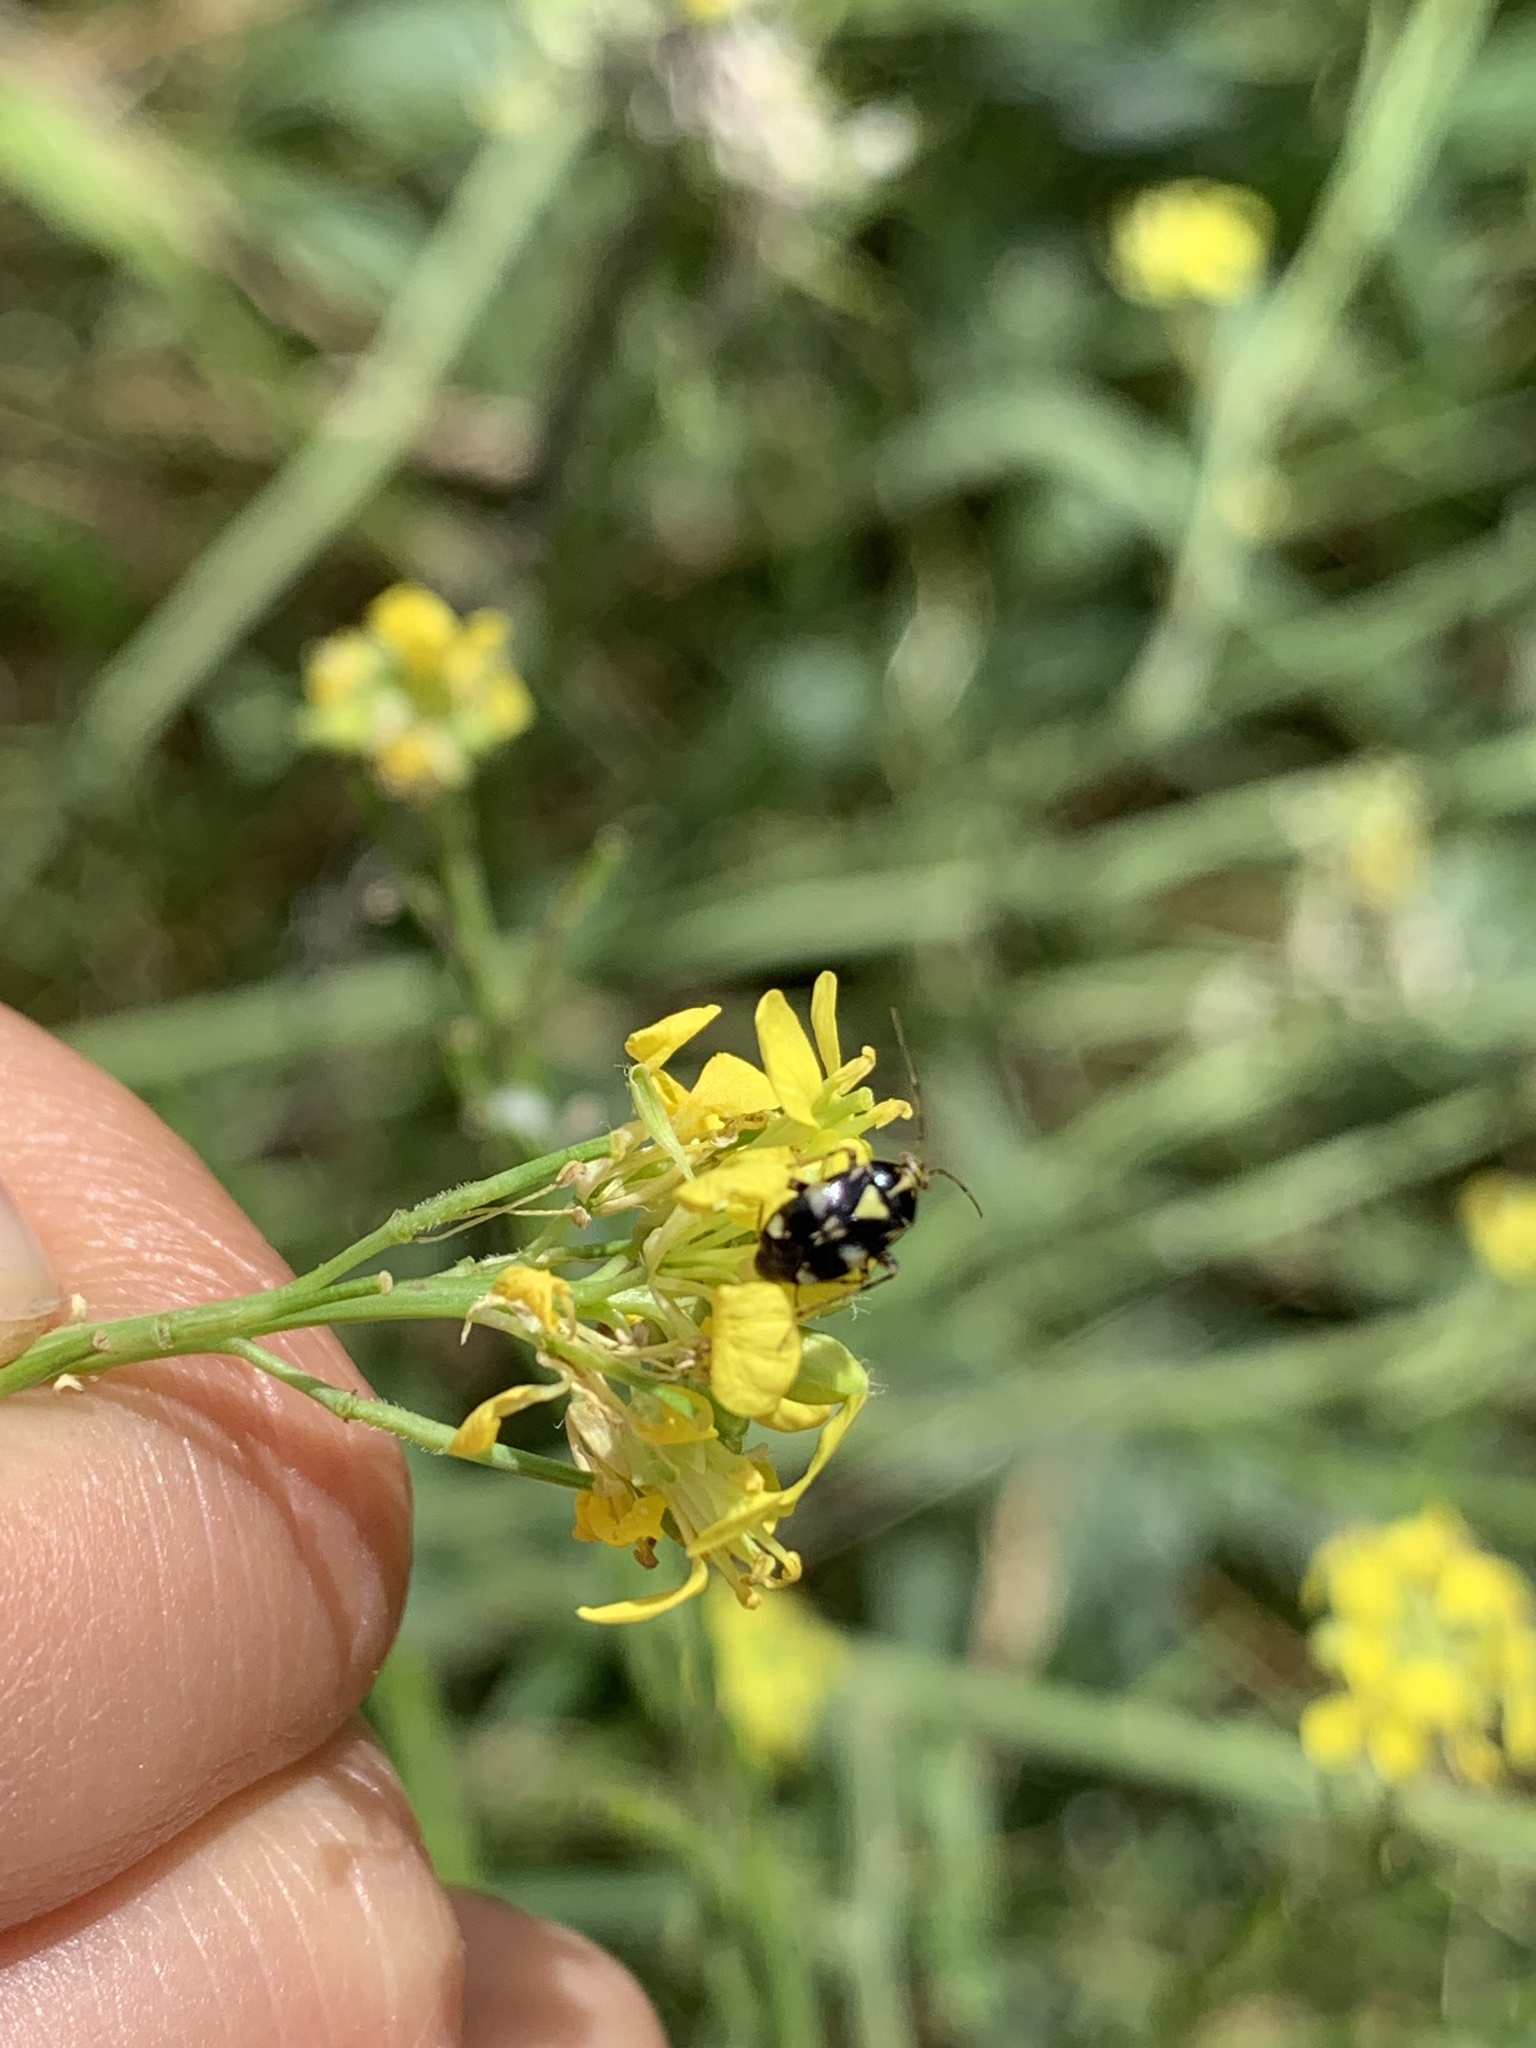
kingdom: Animalia
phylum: Arthropoda
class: Insecta
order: Hemiptera
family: Miridae
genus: Liocoris
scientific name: Liocoris tripustulatus
